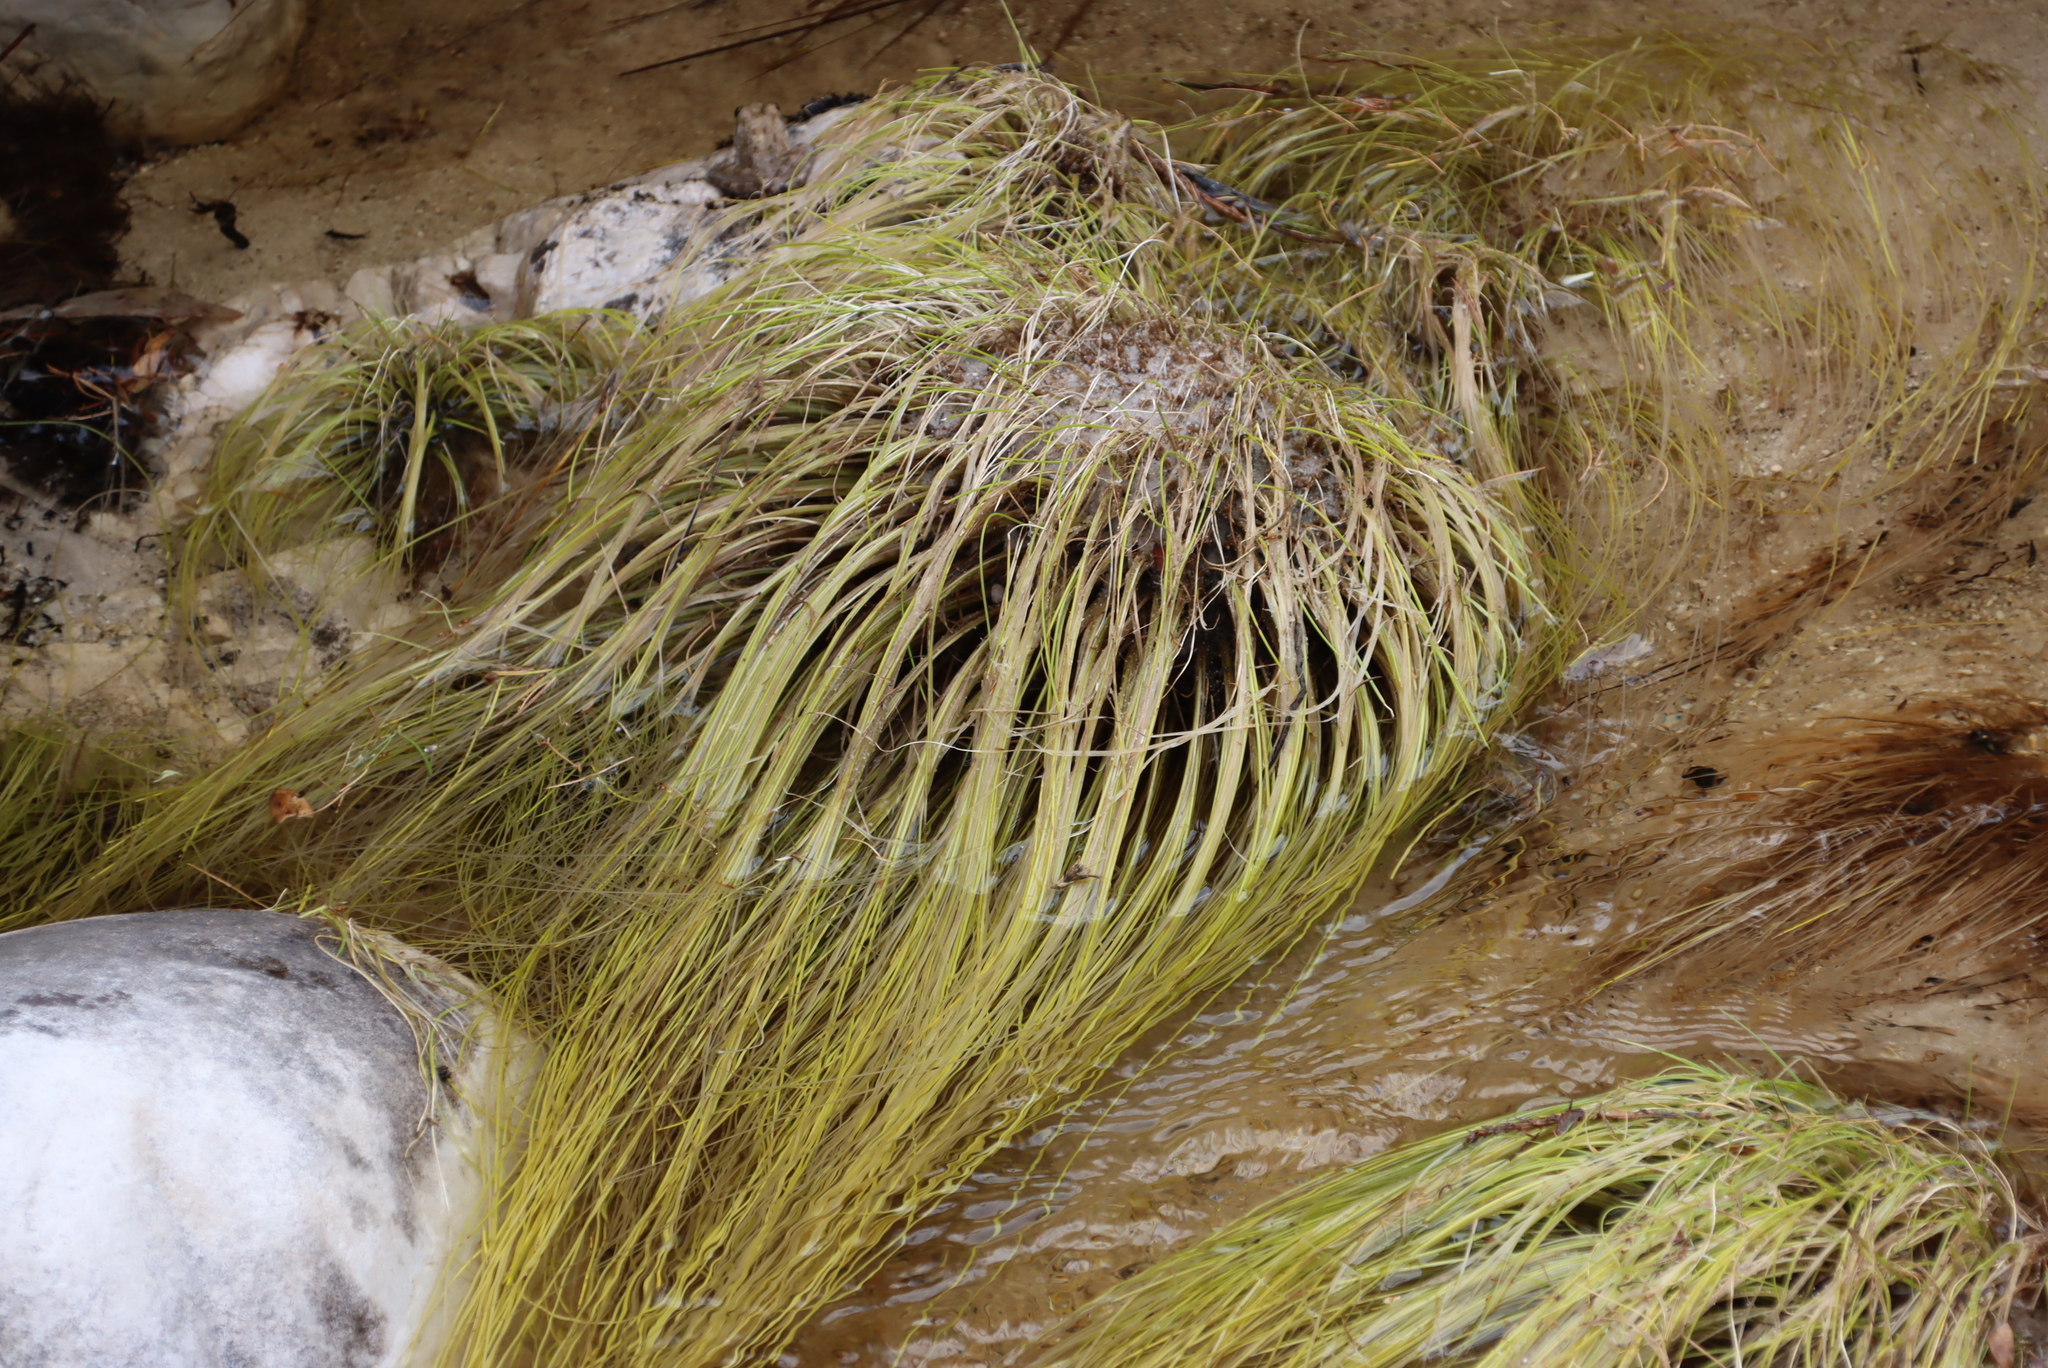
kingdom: Plantae
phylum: Tracheophyta
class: Liliopsida
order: Poales
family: Cyperaceae
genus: Isolepis
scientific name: Isolepis digitata
